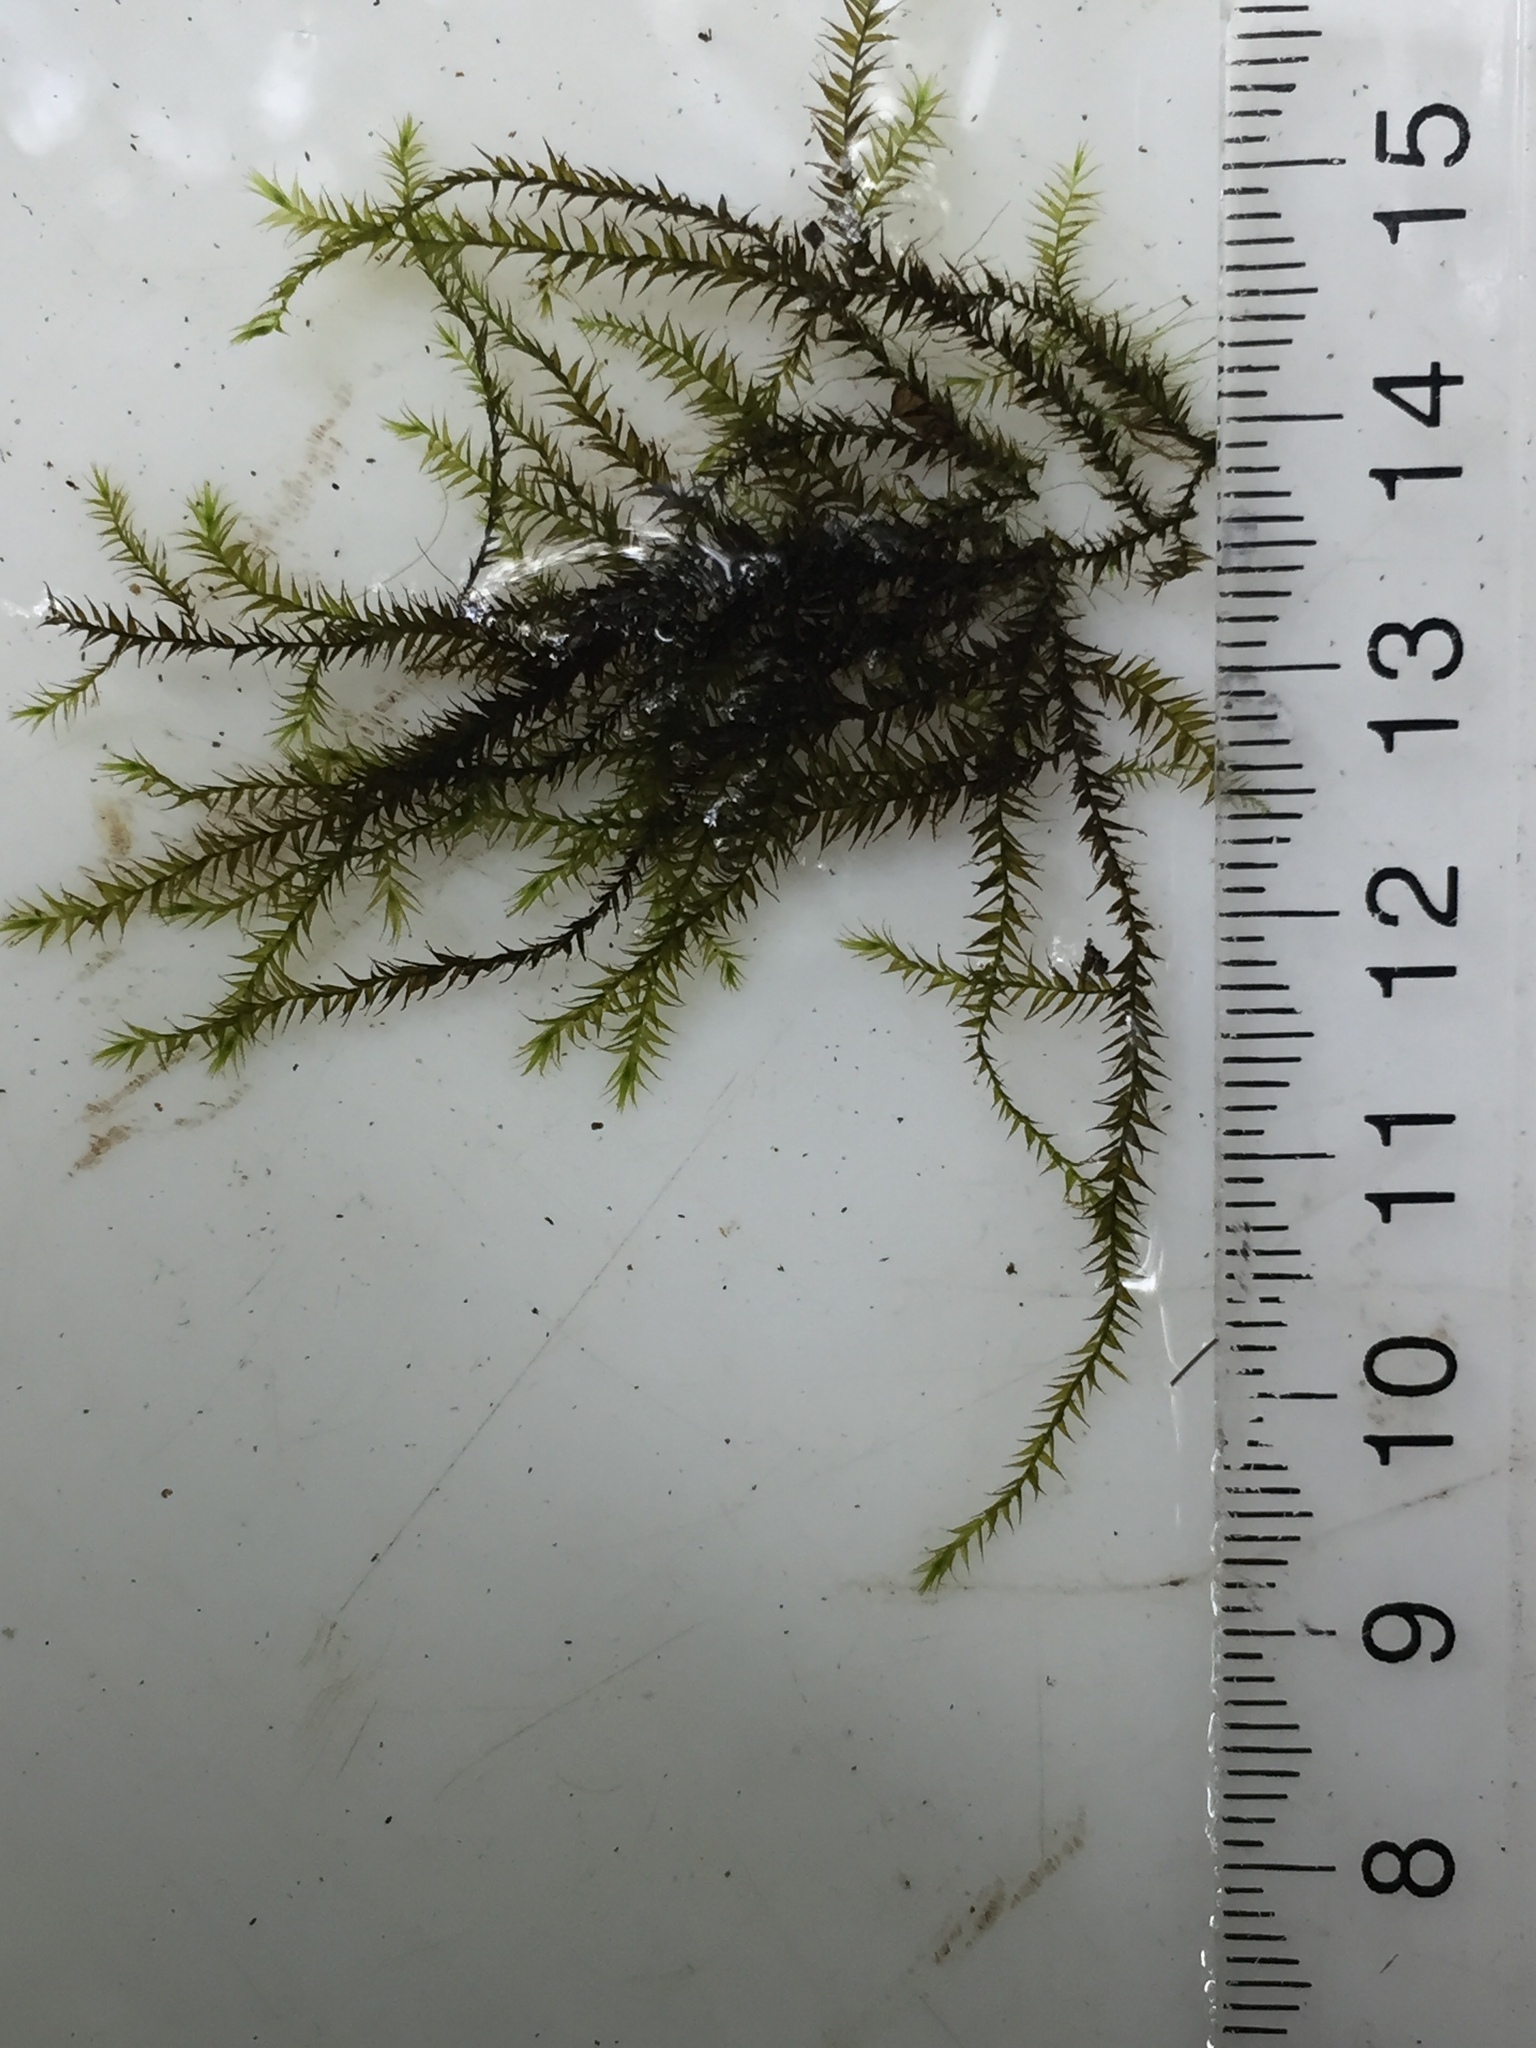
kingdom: Plantae
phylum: Bryophyta
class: Bryopsida
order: Hypnales
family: Amblystegiaceae
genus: Leptodictyum
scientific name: Leptodictyum riparium
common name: Riparian feather moss
